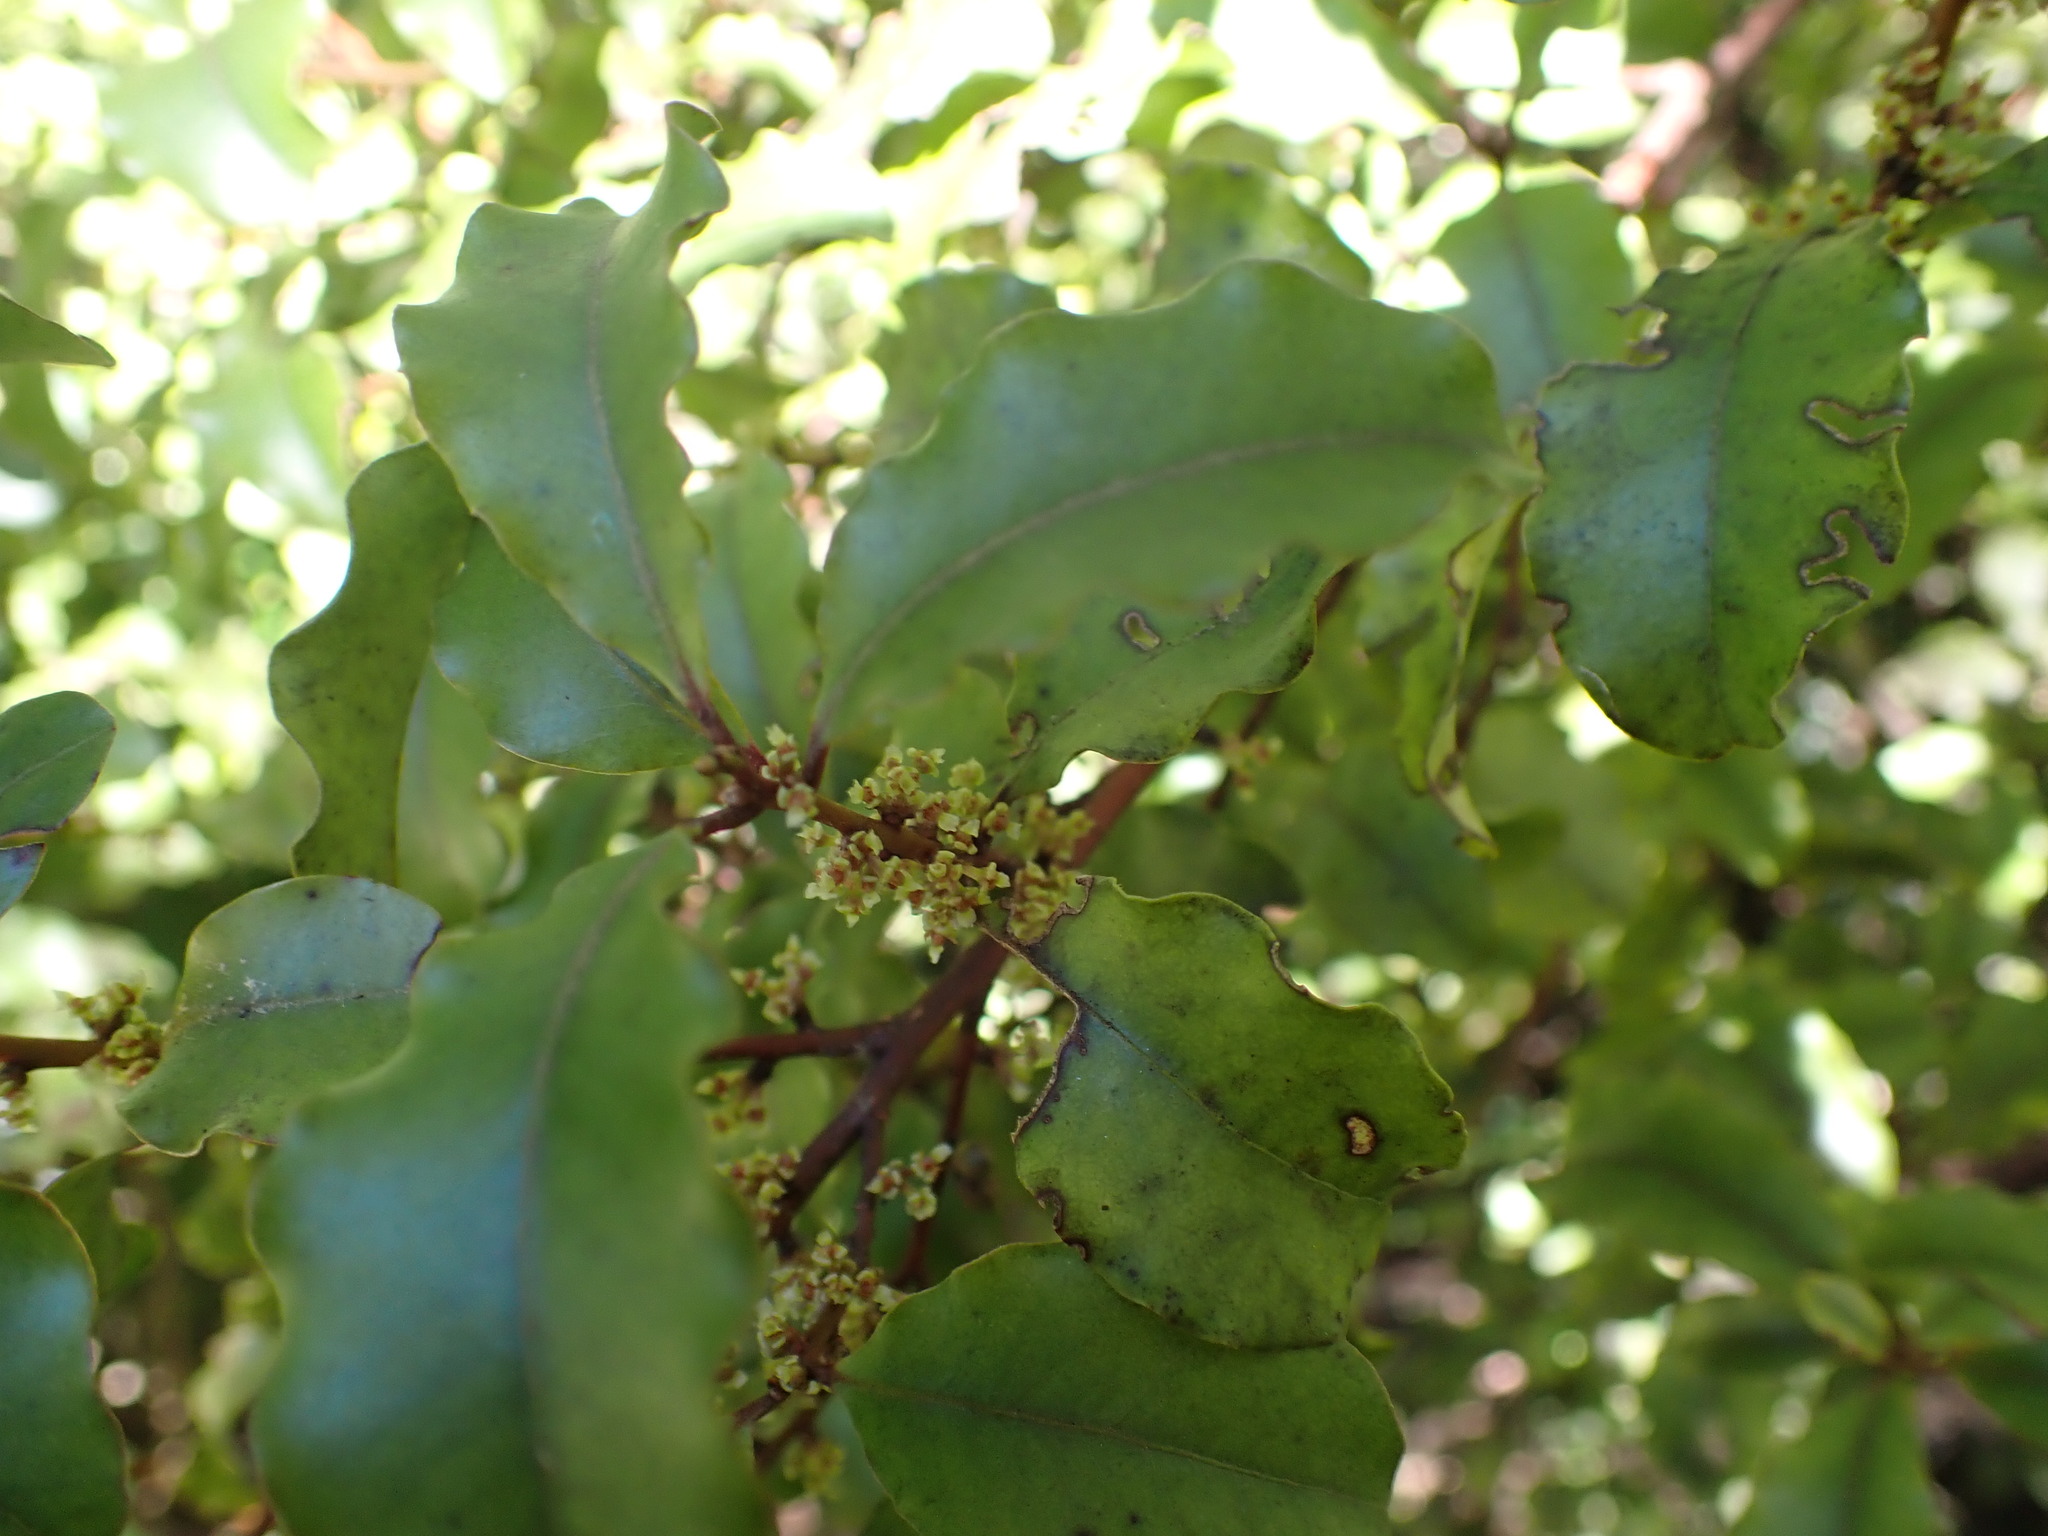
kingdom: Plantae
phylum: Tracheophyta
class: Magnoliopsida
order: Ericales
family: Primulaceae
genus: Myrsine
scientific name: Myrsine australis
